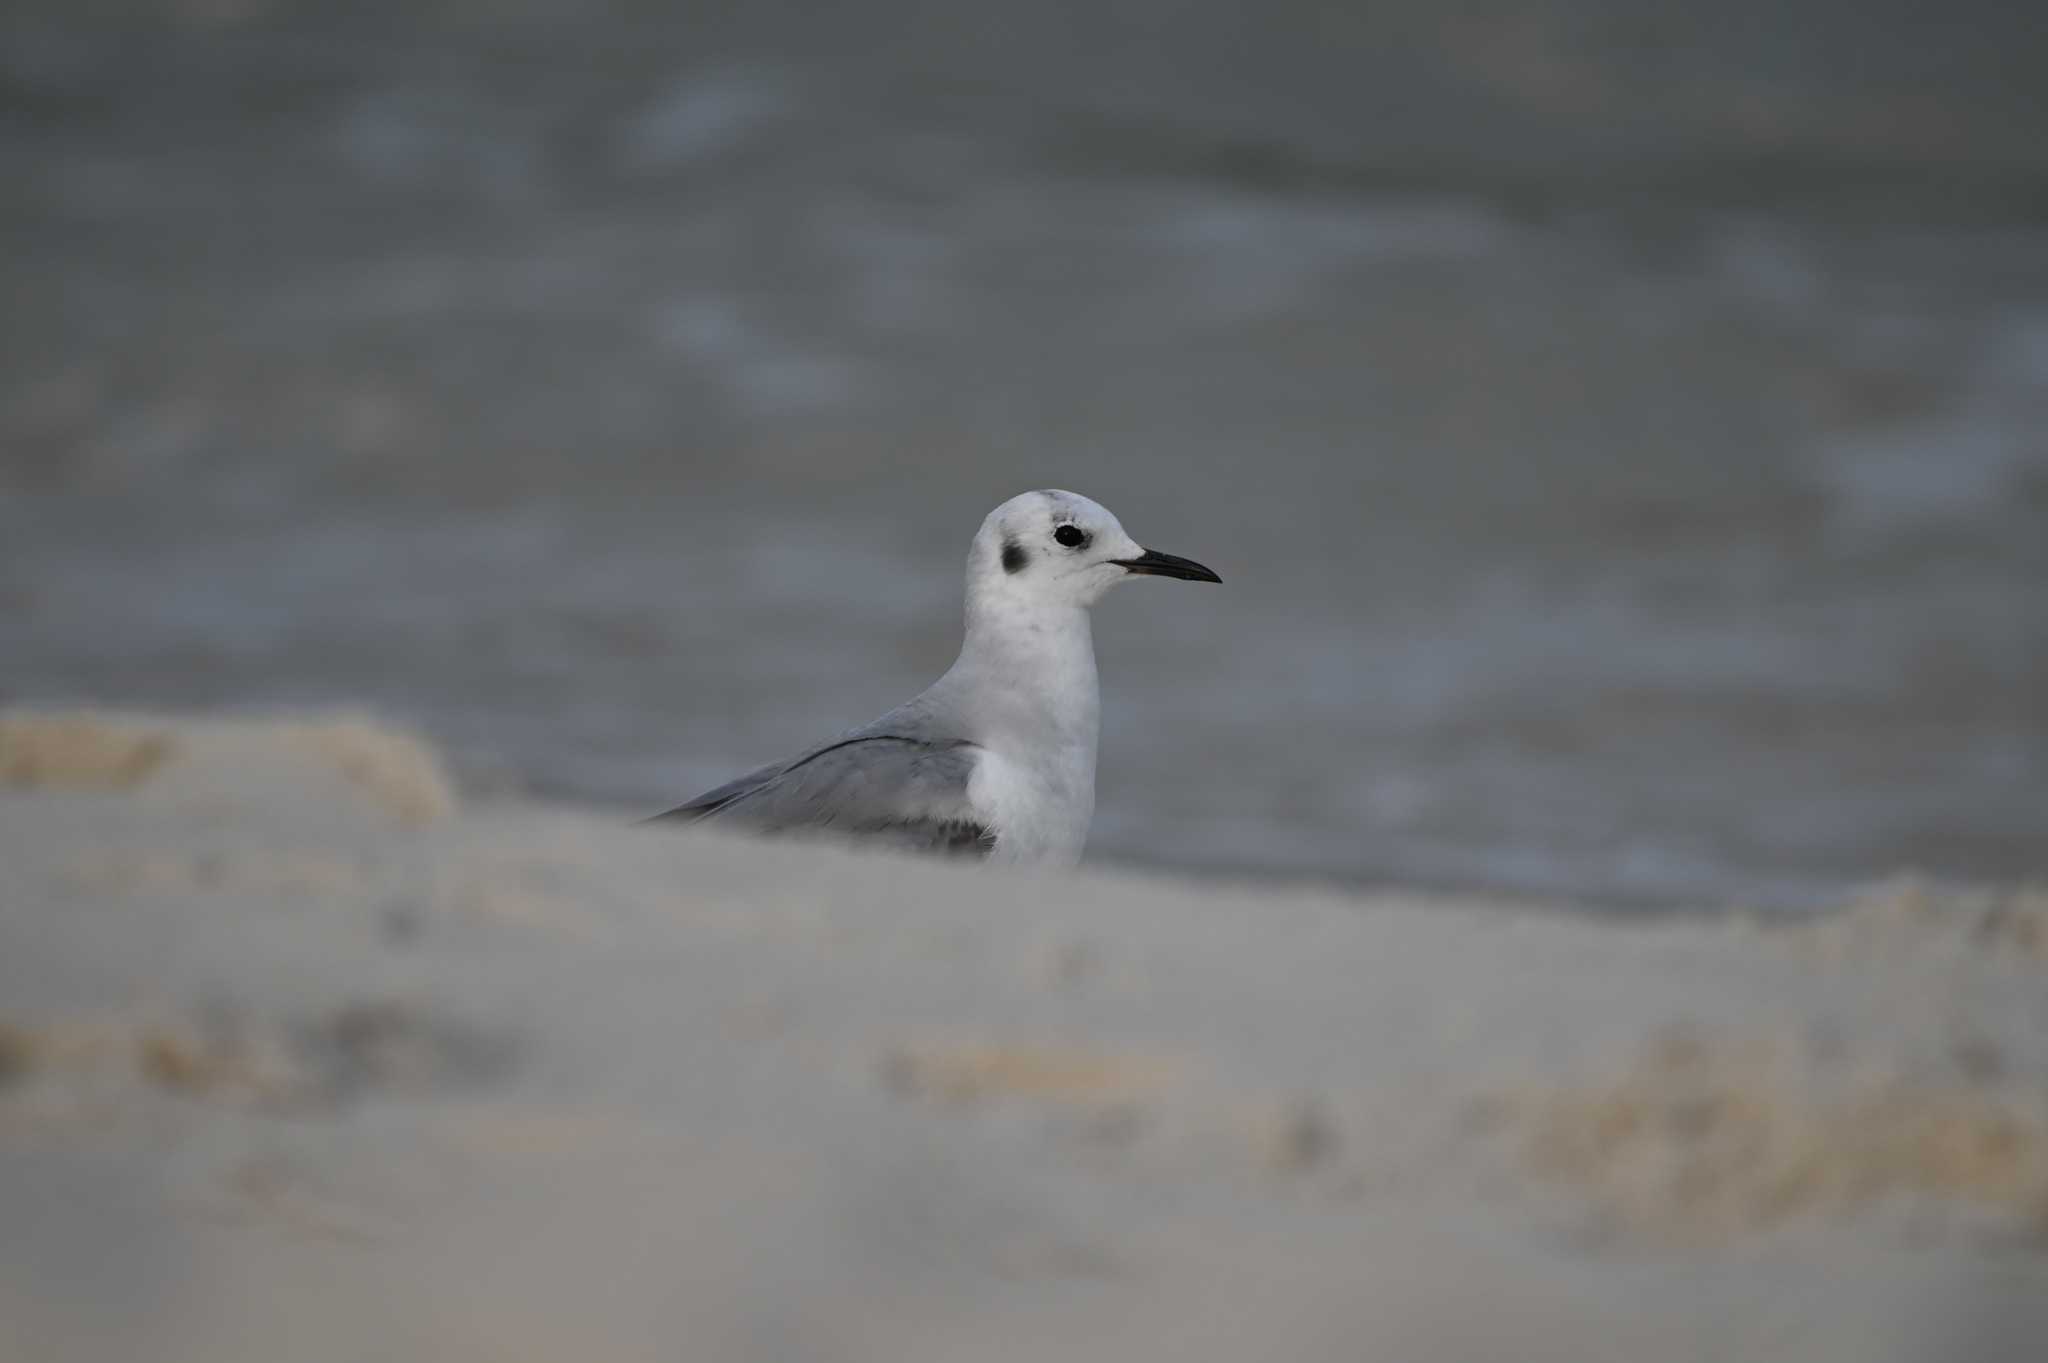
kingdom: Animalia
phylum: Chordata
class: Aves
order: Charadriiformes
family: Laridae
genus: Chroicocephalus
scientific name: Chroicocephalus philadelphia
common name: Bonaparte's gull
